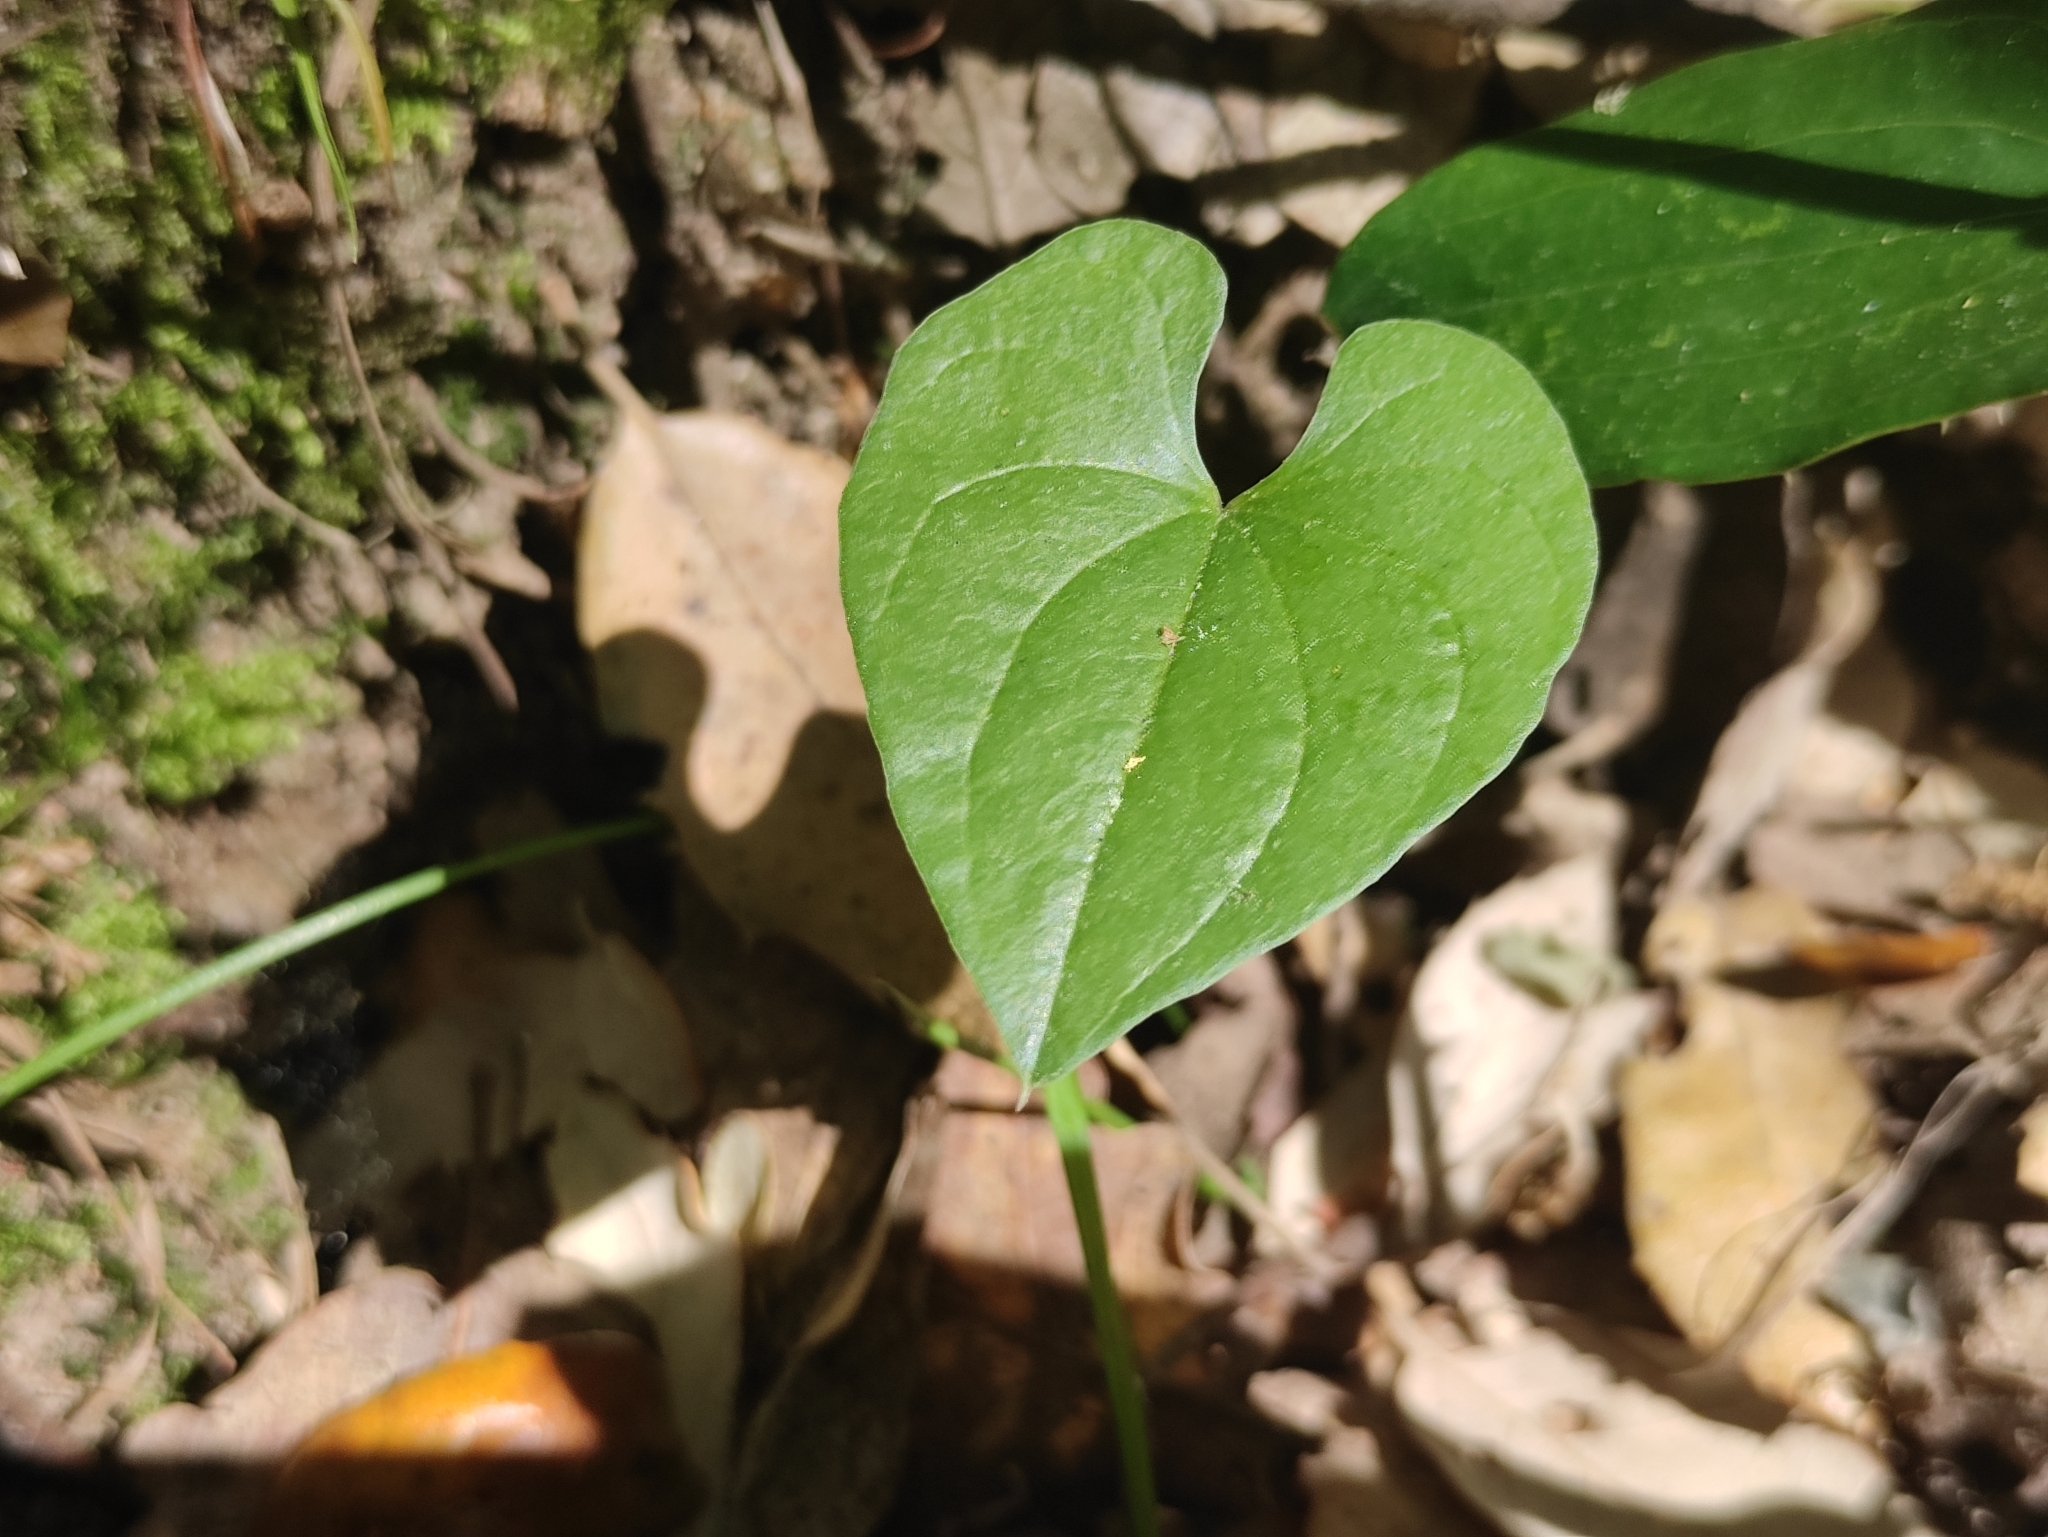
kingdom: Plantae
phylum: Tracheophyta
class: Liliopsida
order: Dioscoreales
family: Dioscoreaceae
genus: Dioscorea
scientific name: Dioscorea communis
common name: Black-bindweed
